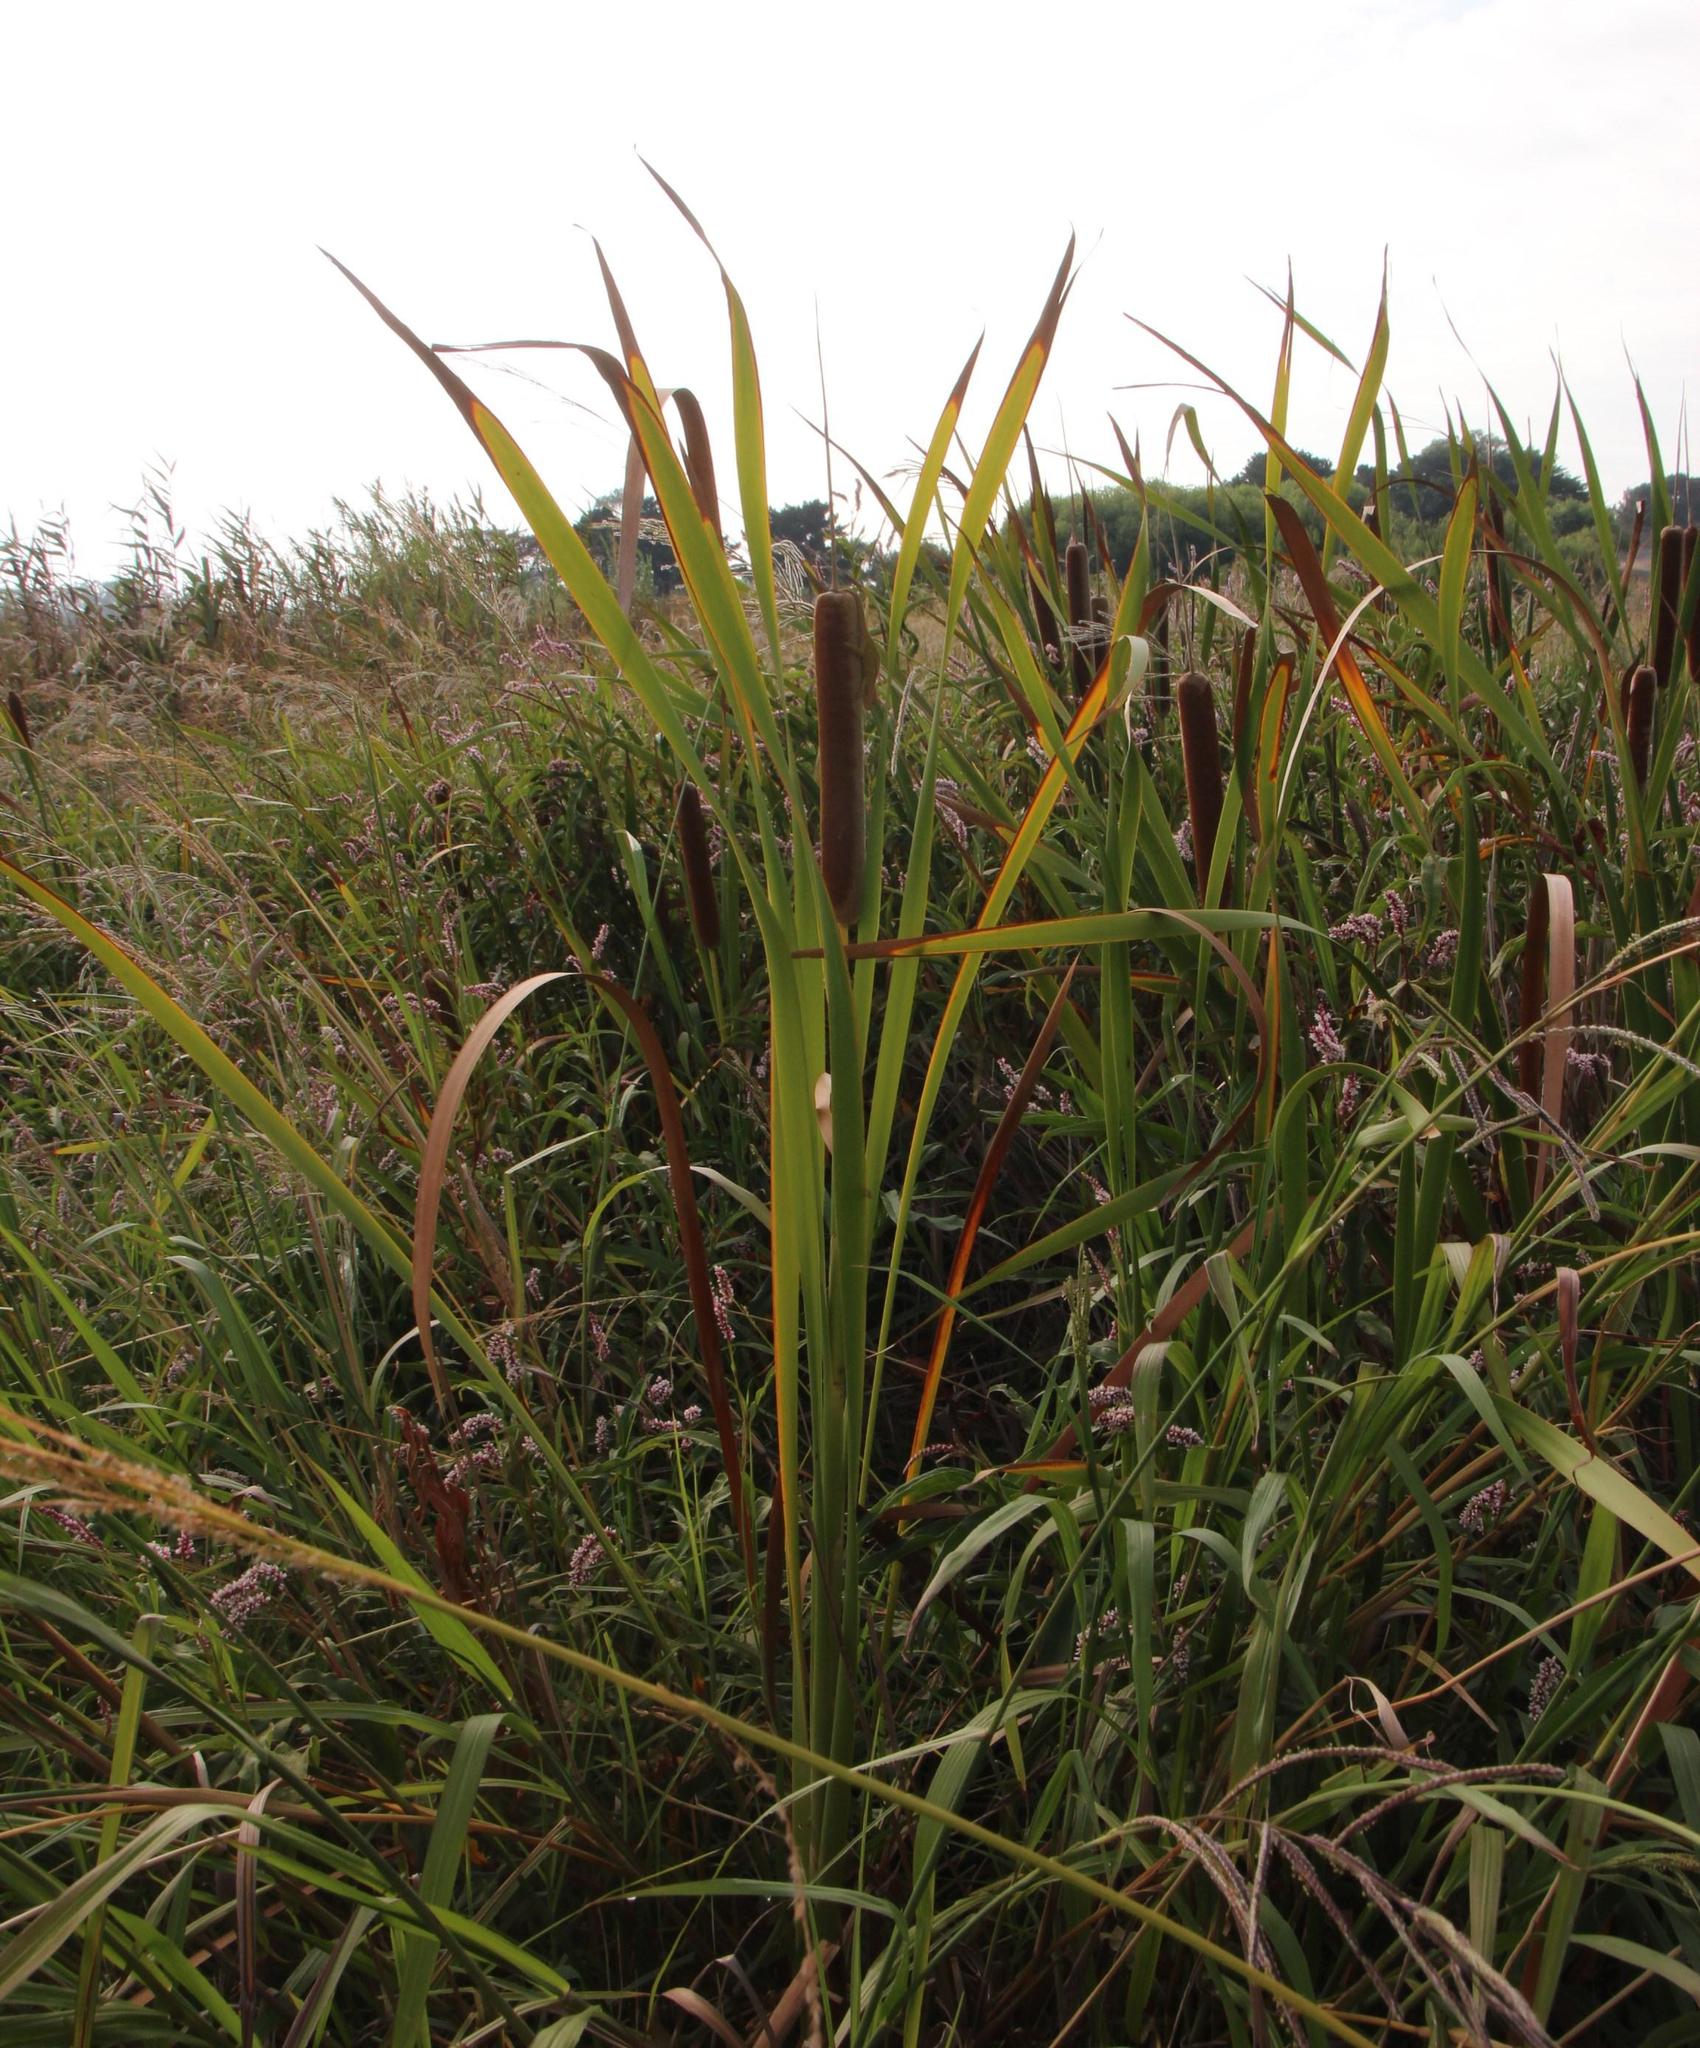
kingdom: Animalia
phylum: Chordata
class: Squamata
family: Chamaeleonidae
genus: Bradypodion
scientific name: Bradypodion pumilum
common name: Cape dwarf chameleon
